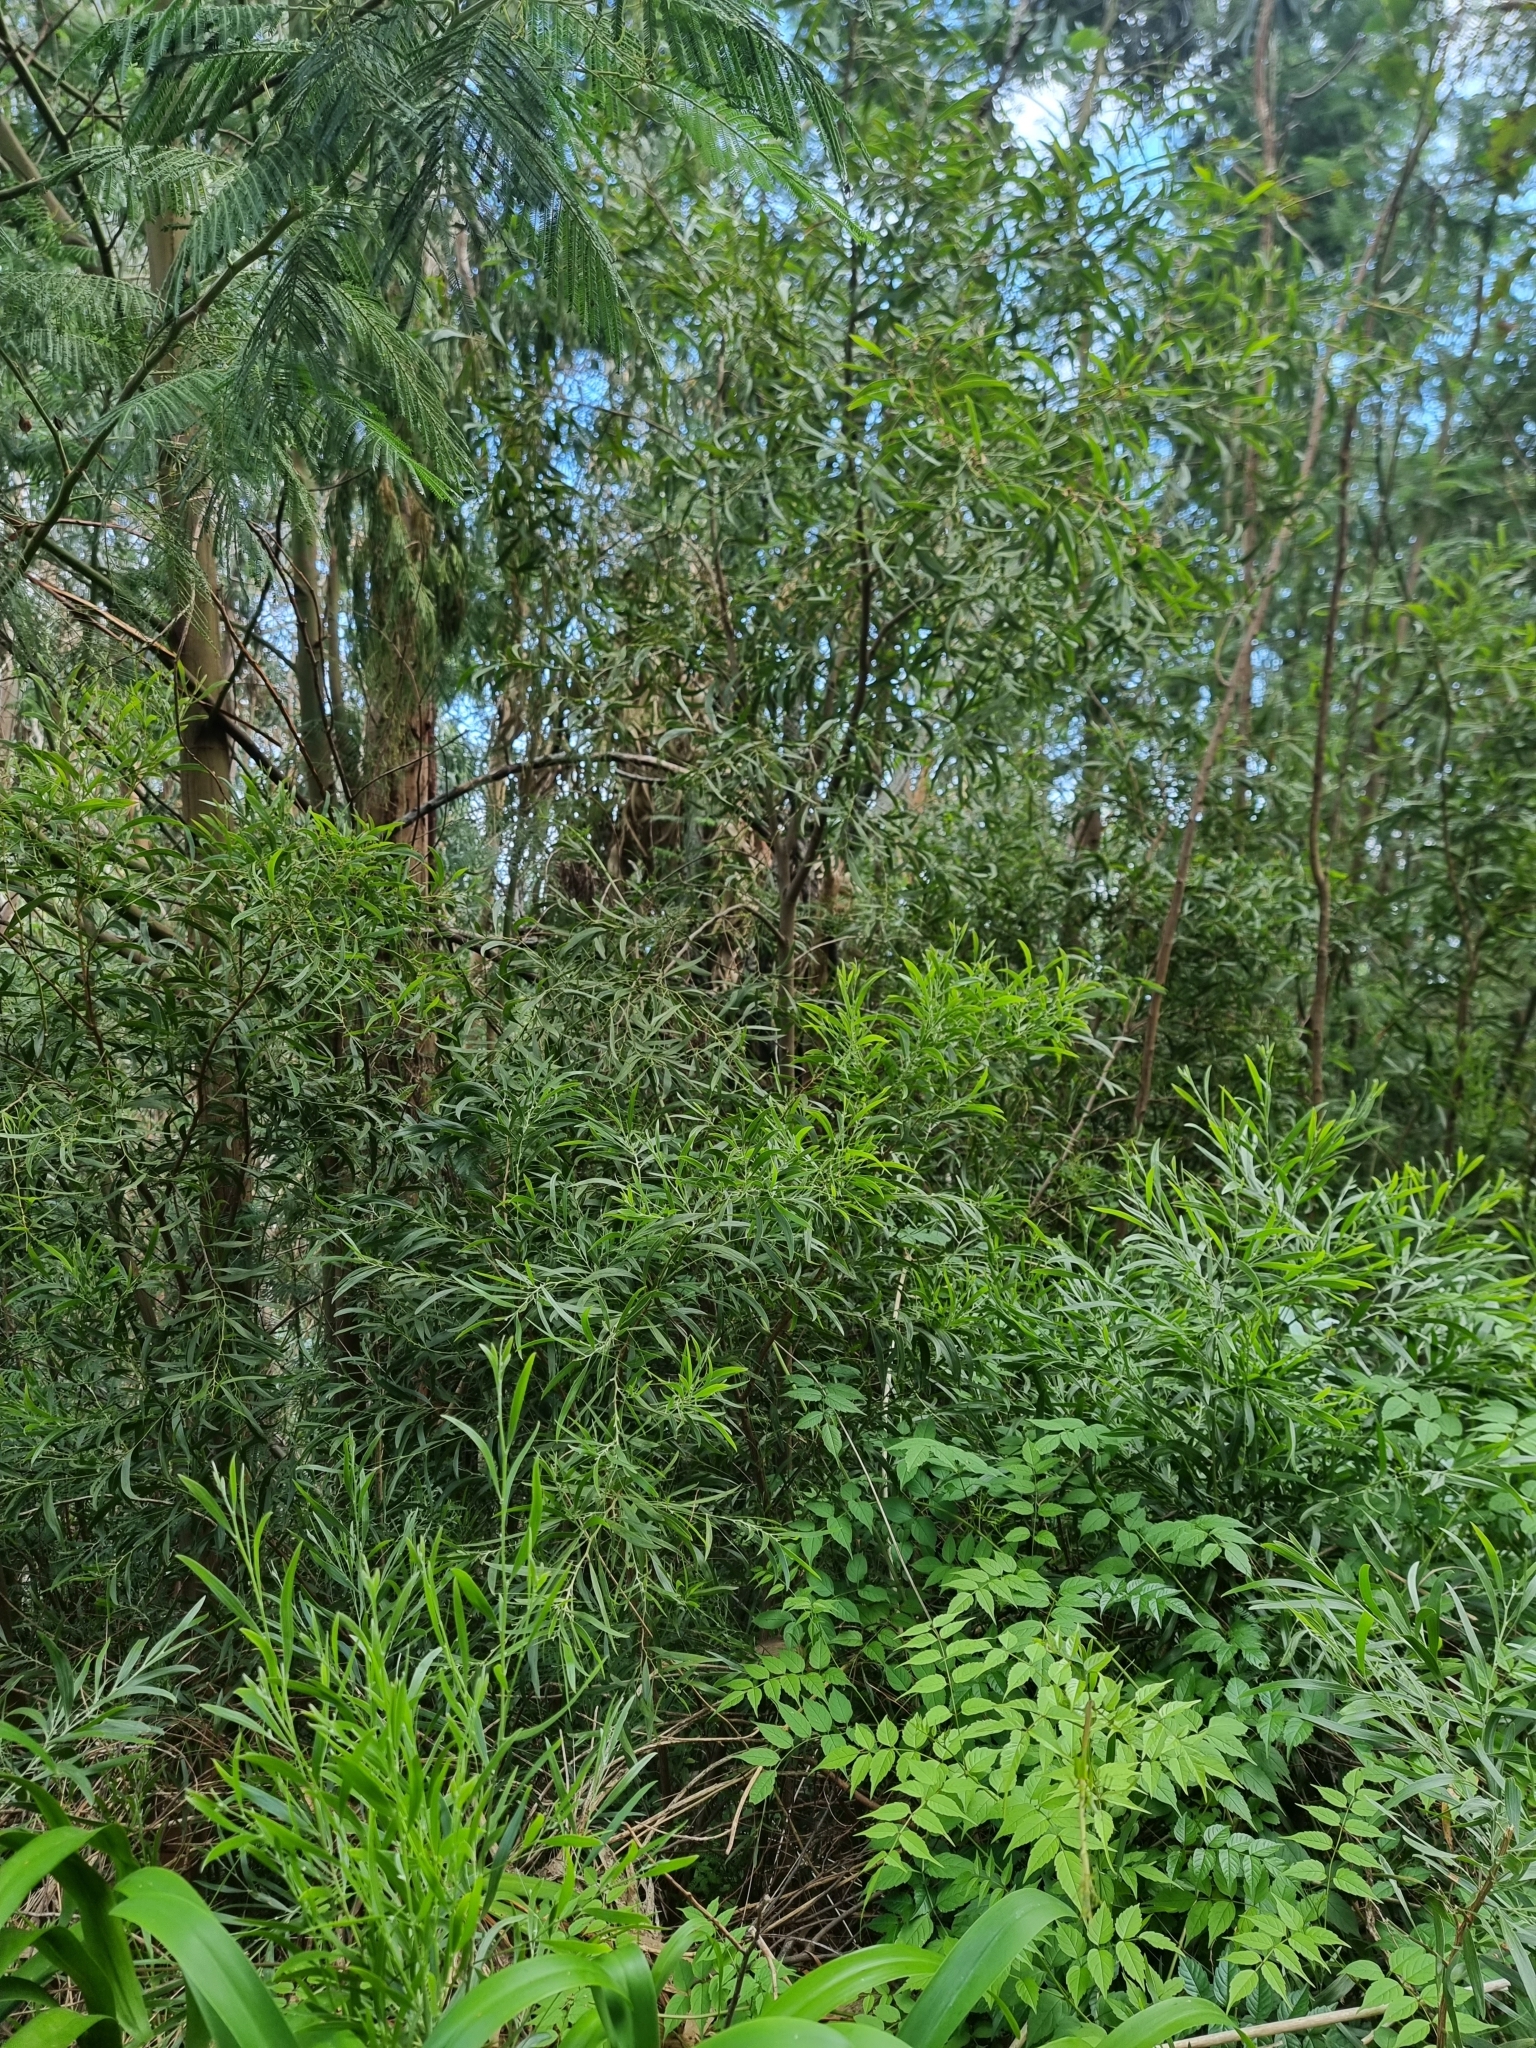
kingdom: Plantae
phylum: Tracheophyta
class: Magnoliopsida
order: Fabales
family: Fabaceae
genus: Acacia
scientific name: Acacia melanoxylon
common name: Blackwood
